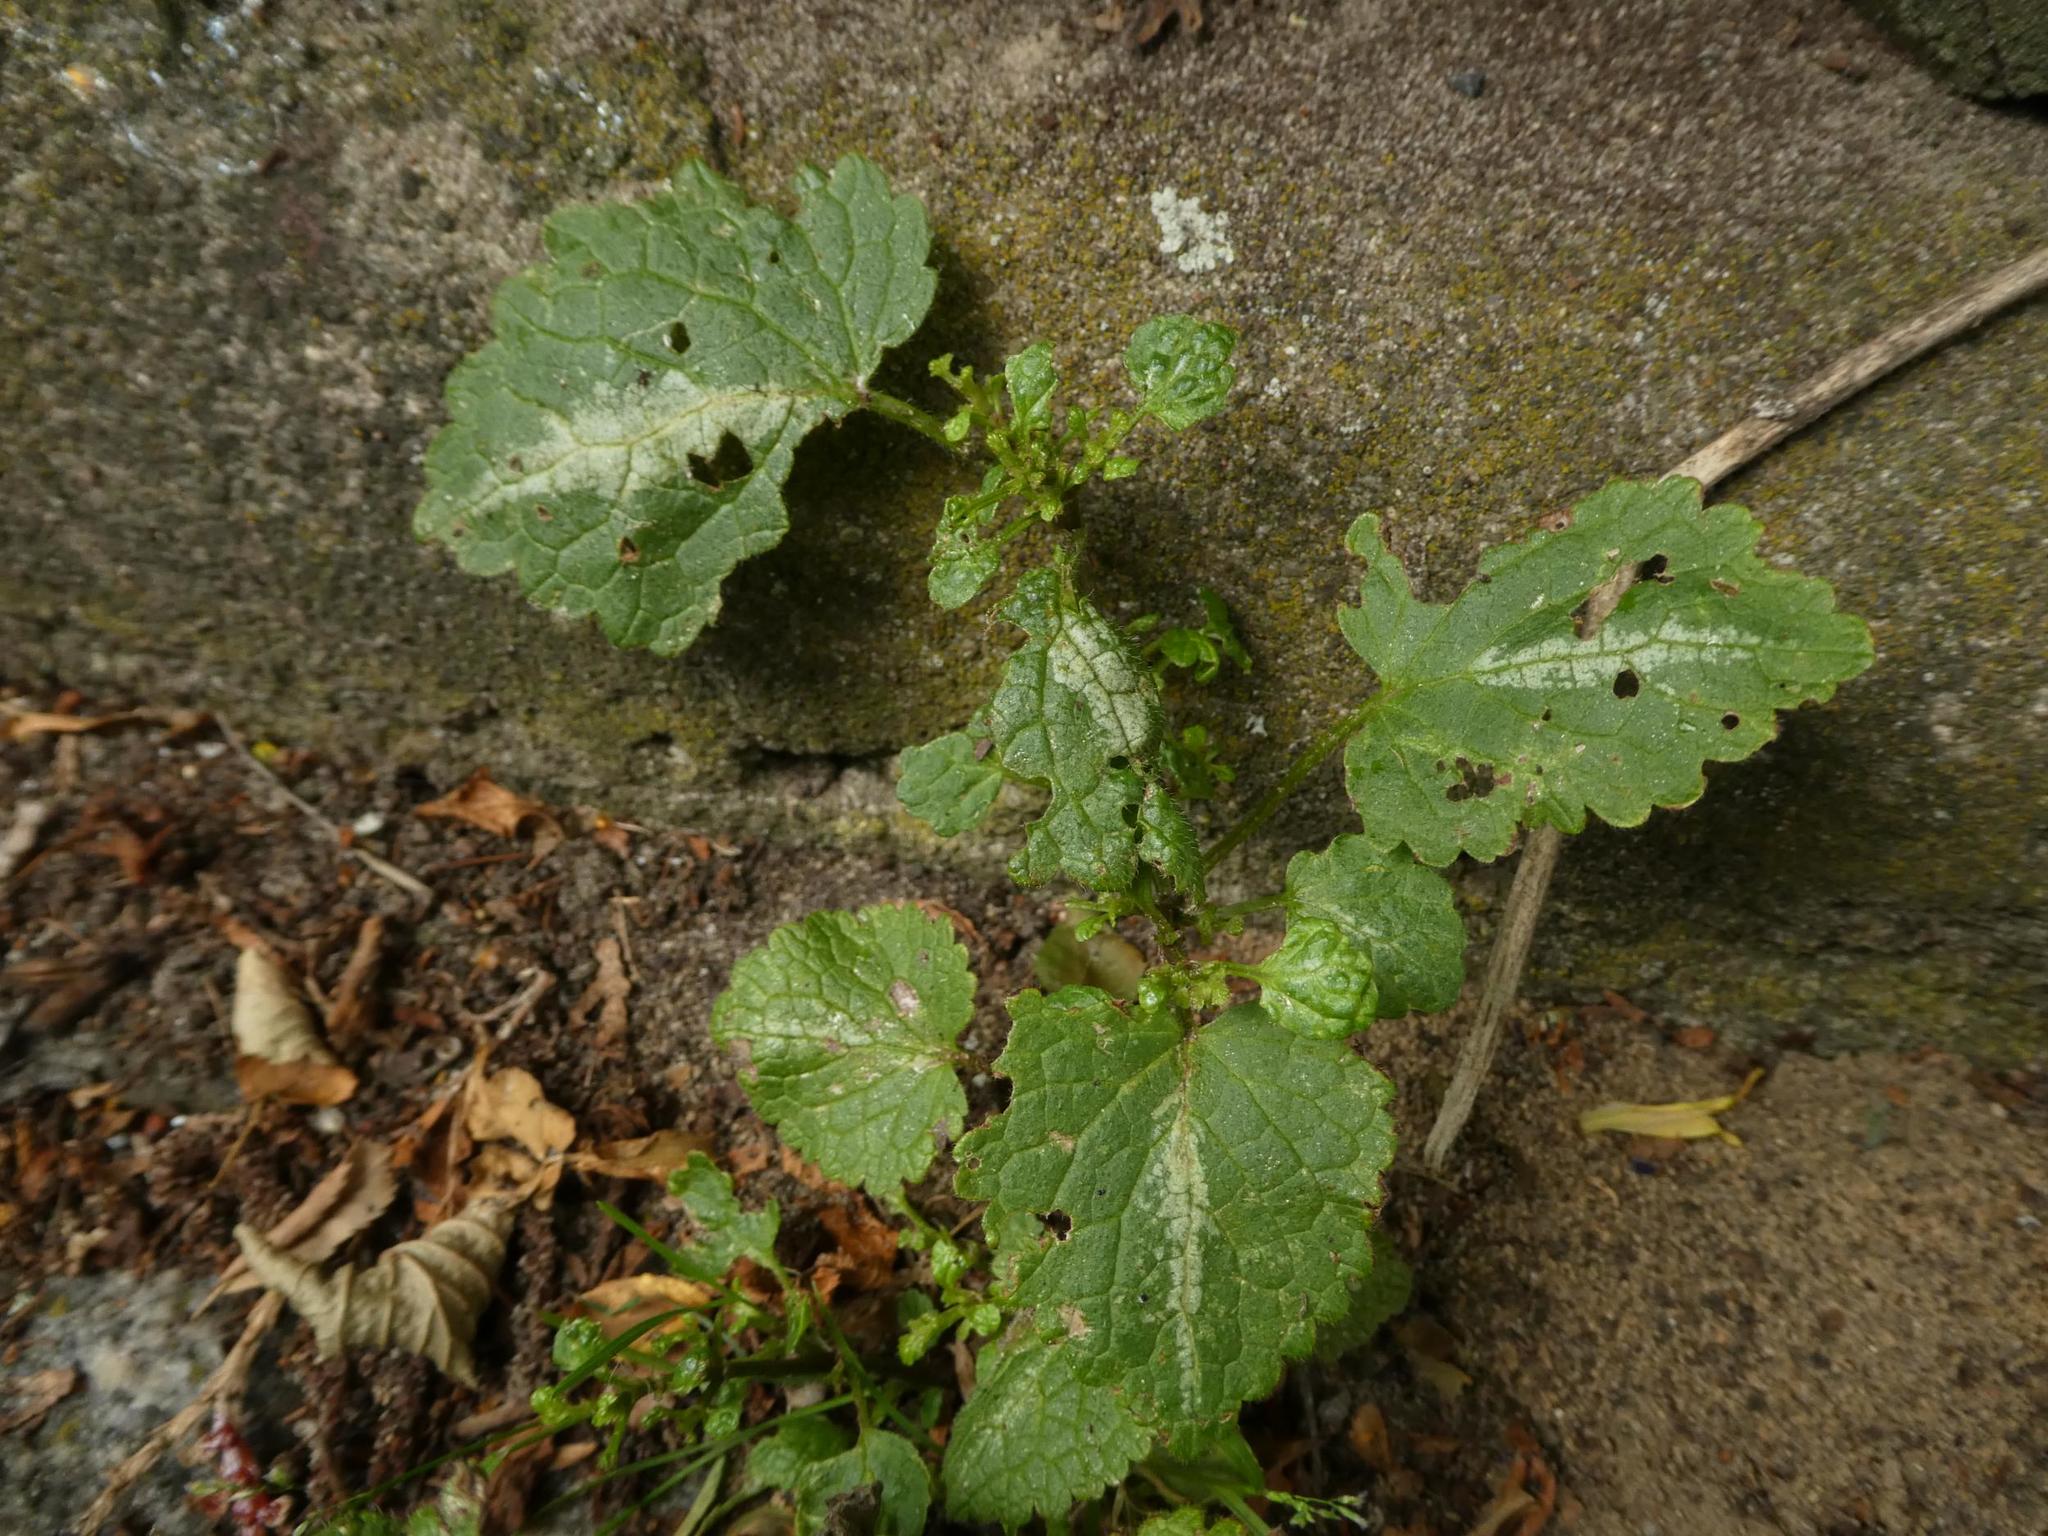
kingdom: Plantae
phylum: Tracheophyta
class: Magnoliopsida
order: Lamiales
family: Lamiaceae
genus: Lamium
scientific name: Lamium maculatum
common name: Spotted dead-nettle
